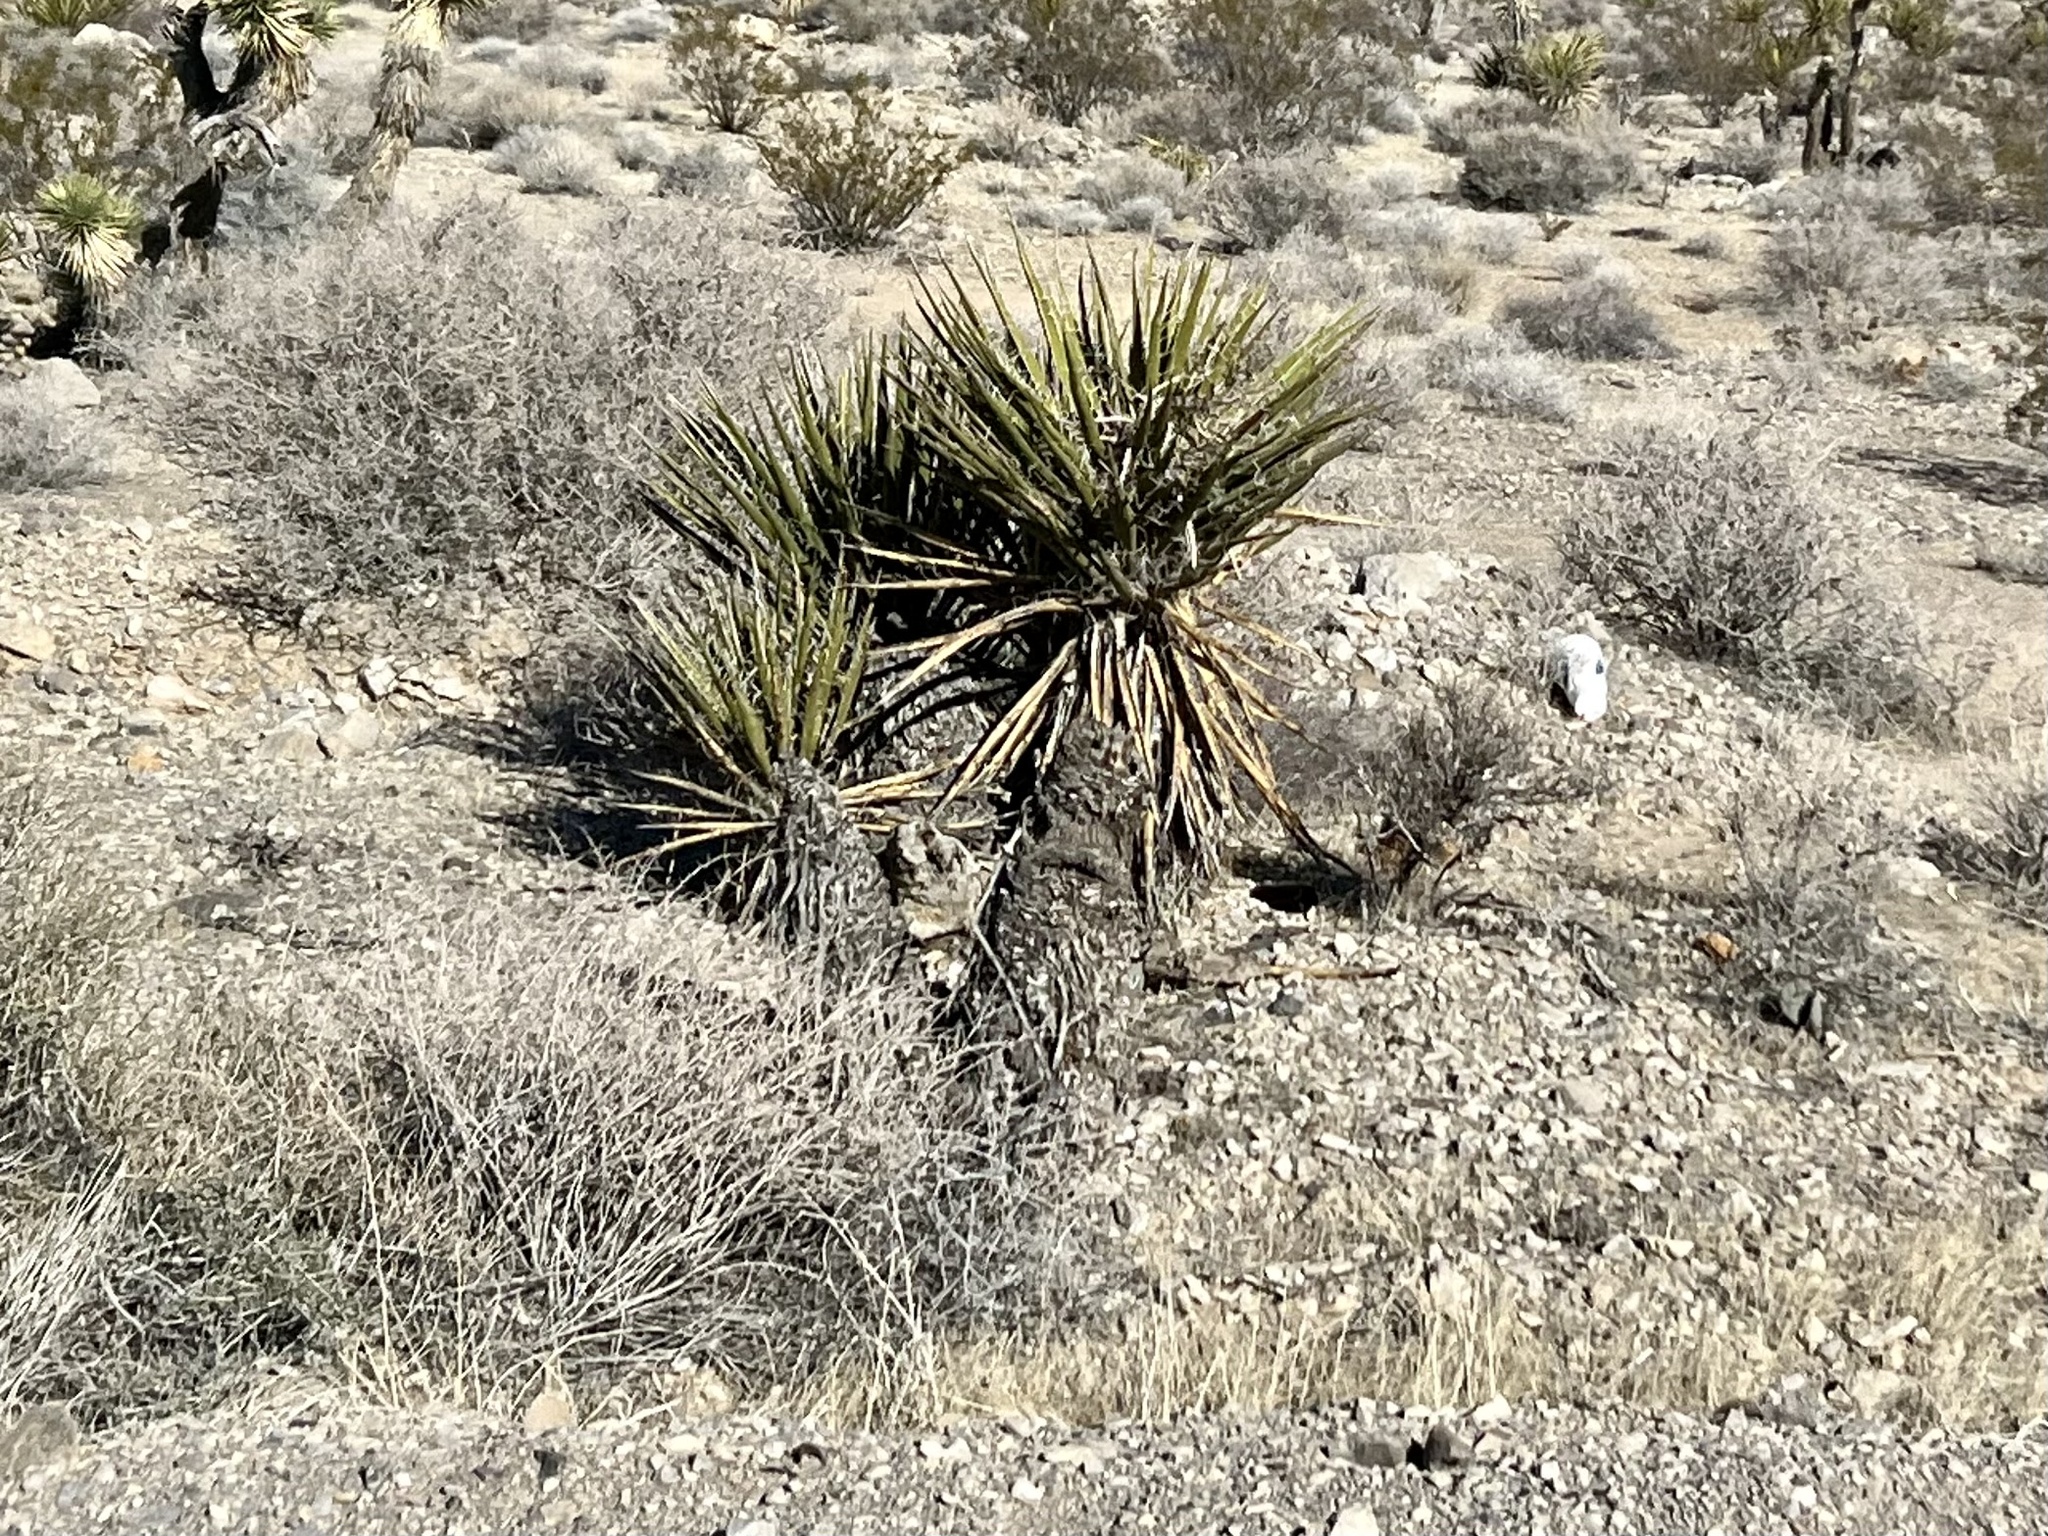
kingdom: Plantae
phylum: Tracheophyta
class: Liliopsida
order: Asparagales
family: Asparagaceae
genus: Yucca
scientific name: Yucca schidigera
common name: Mojave yucca
